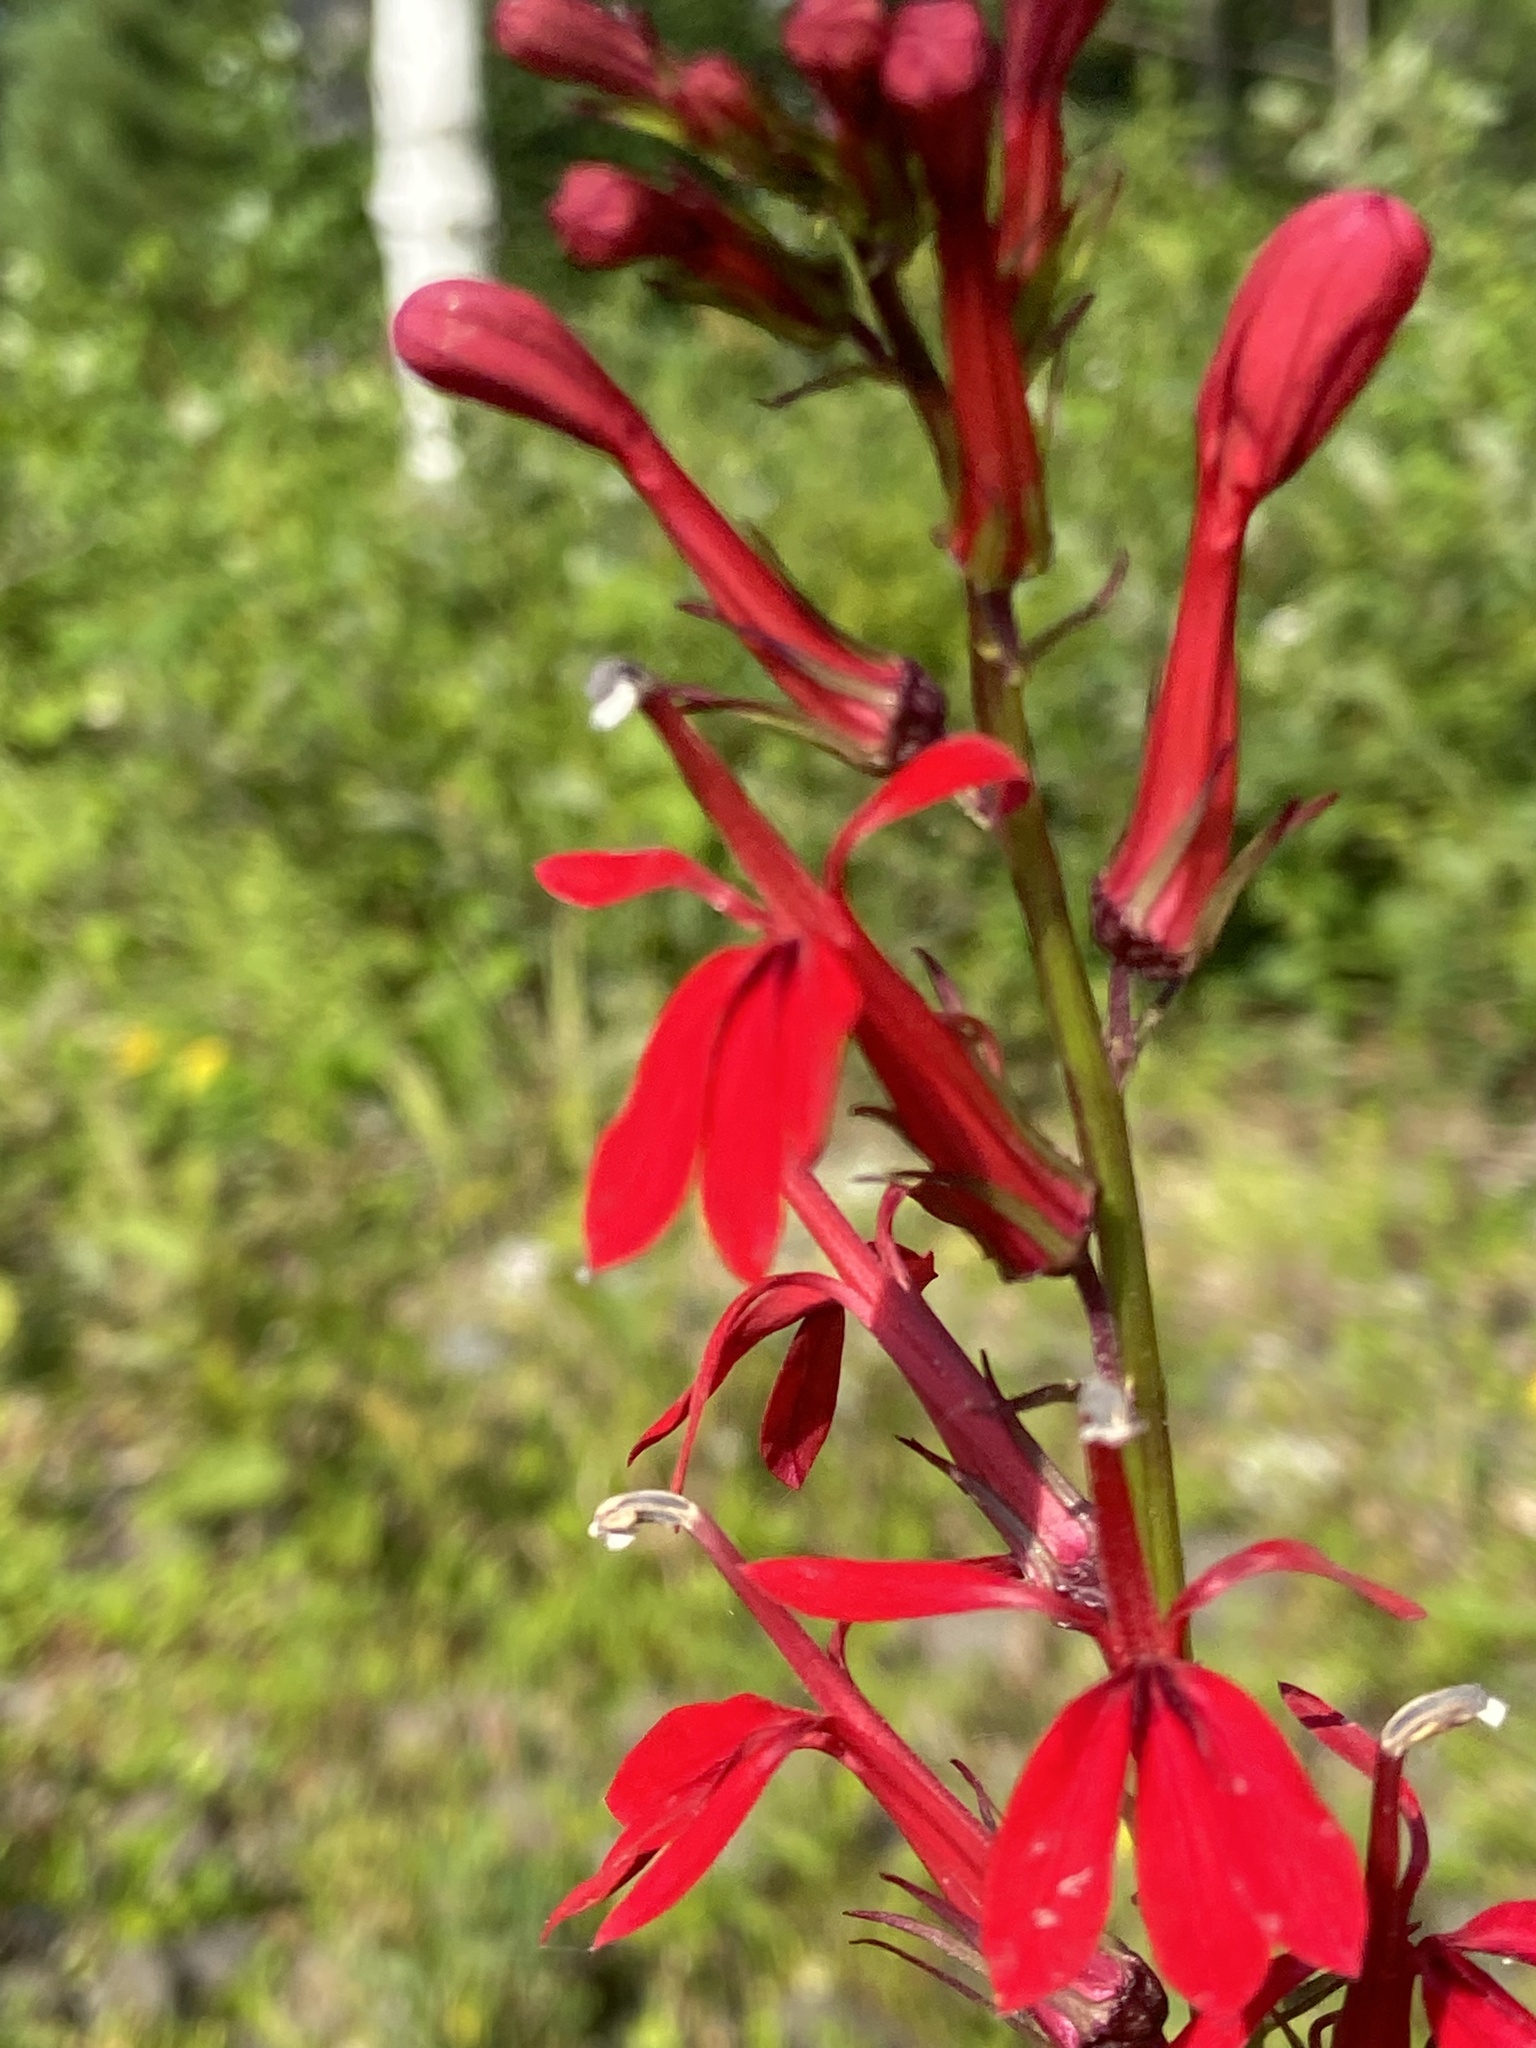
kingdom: Plantae
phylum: Tracheophyta
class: Magnoliopsida
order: Asterales
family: Campanulaceae
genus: Lobelia
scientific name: Lobelia cardinalis
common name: Cardinal flower
